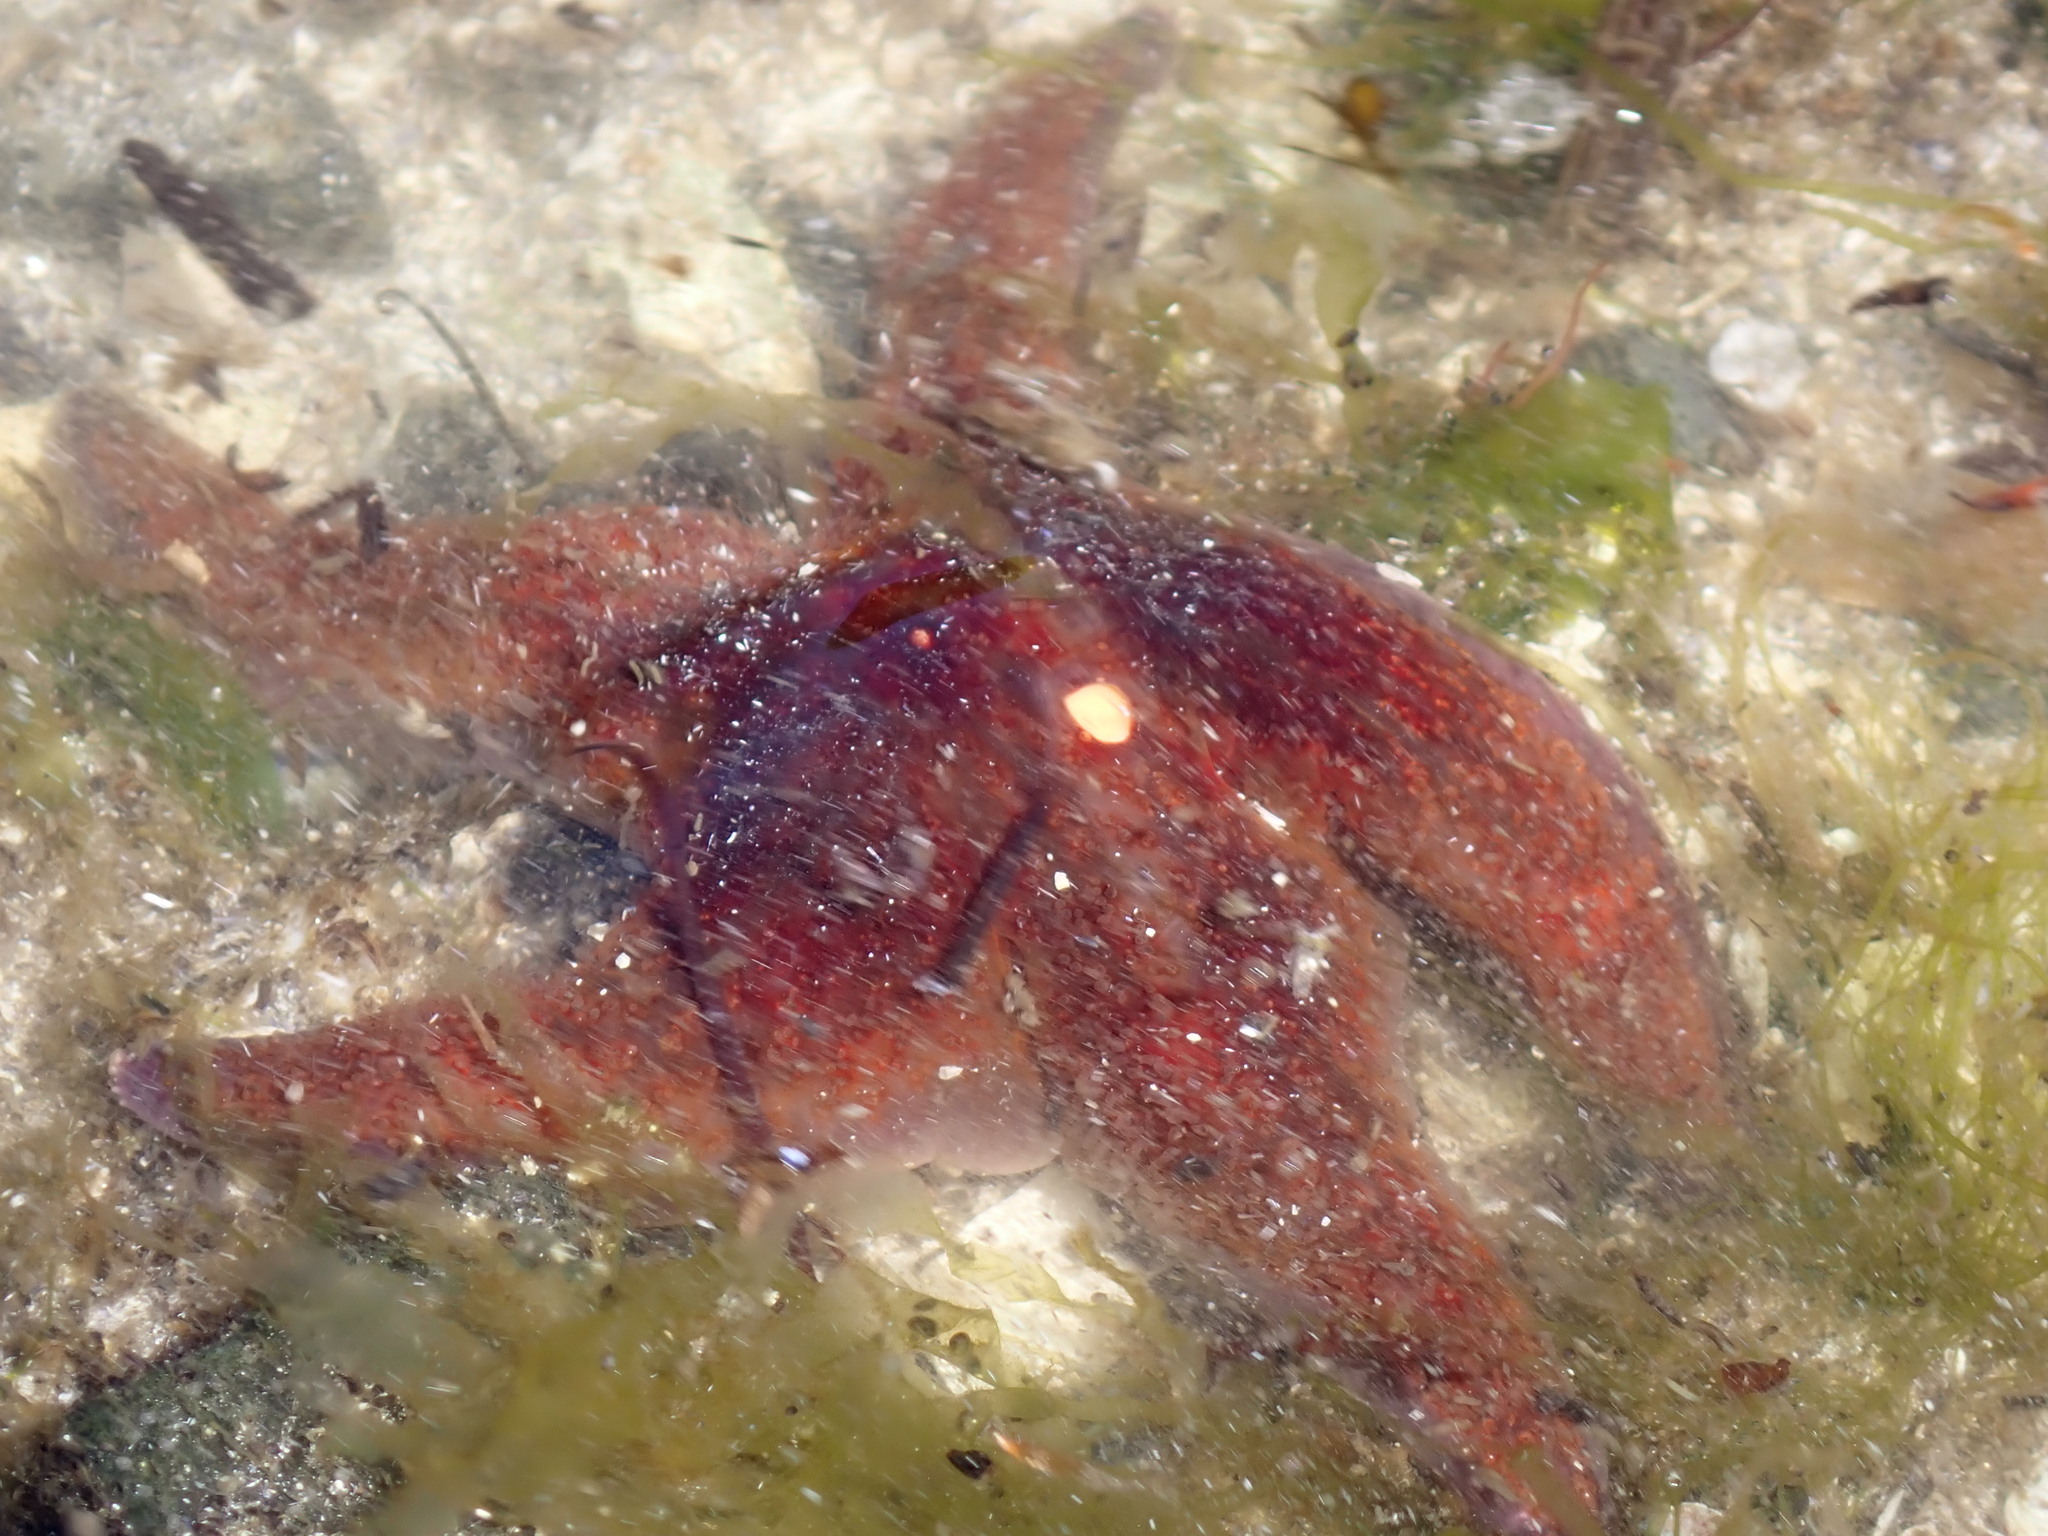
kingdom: Animalia
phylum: Echinodermata
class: Asteroidea
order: Valvatida
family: Asteropseidae
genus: Dermasterias
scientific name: Dermasterias imbricata
